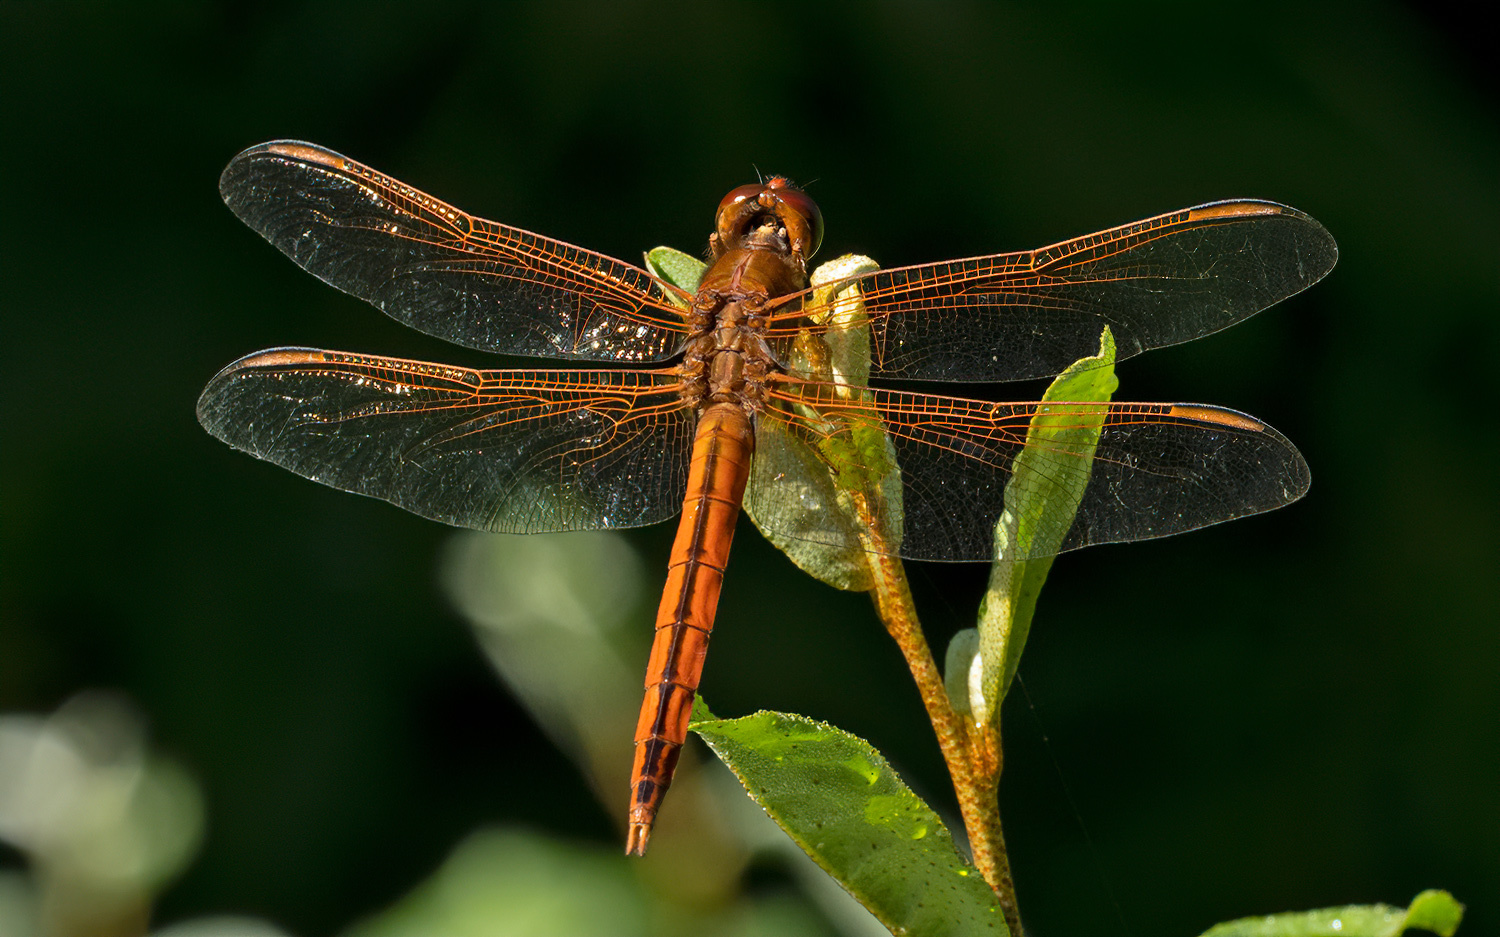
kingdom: Animalia
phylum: Arthropoda
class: Insecta
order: Odonata
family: Libellulidae
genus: Libellula
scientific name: Libellula needhami
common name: Needham's skimmer
